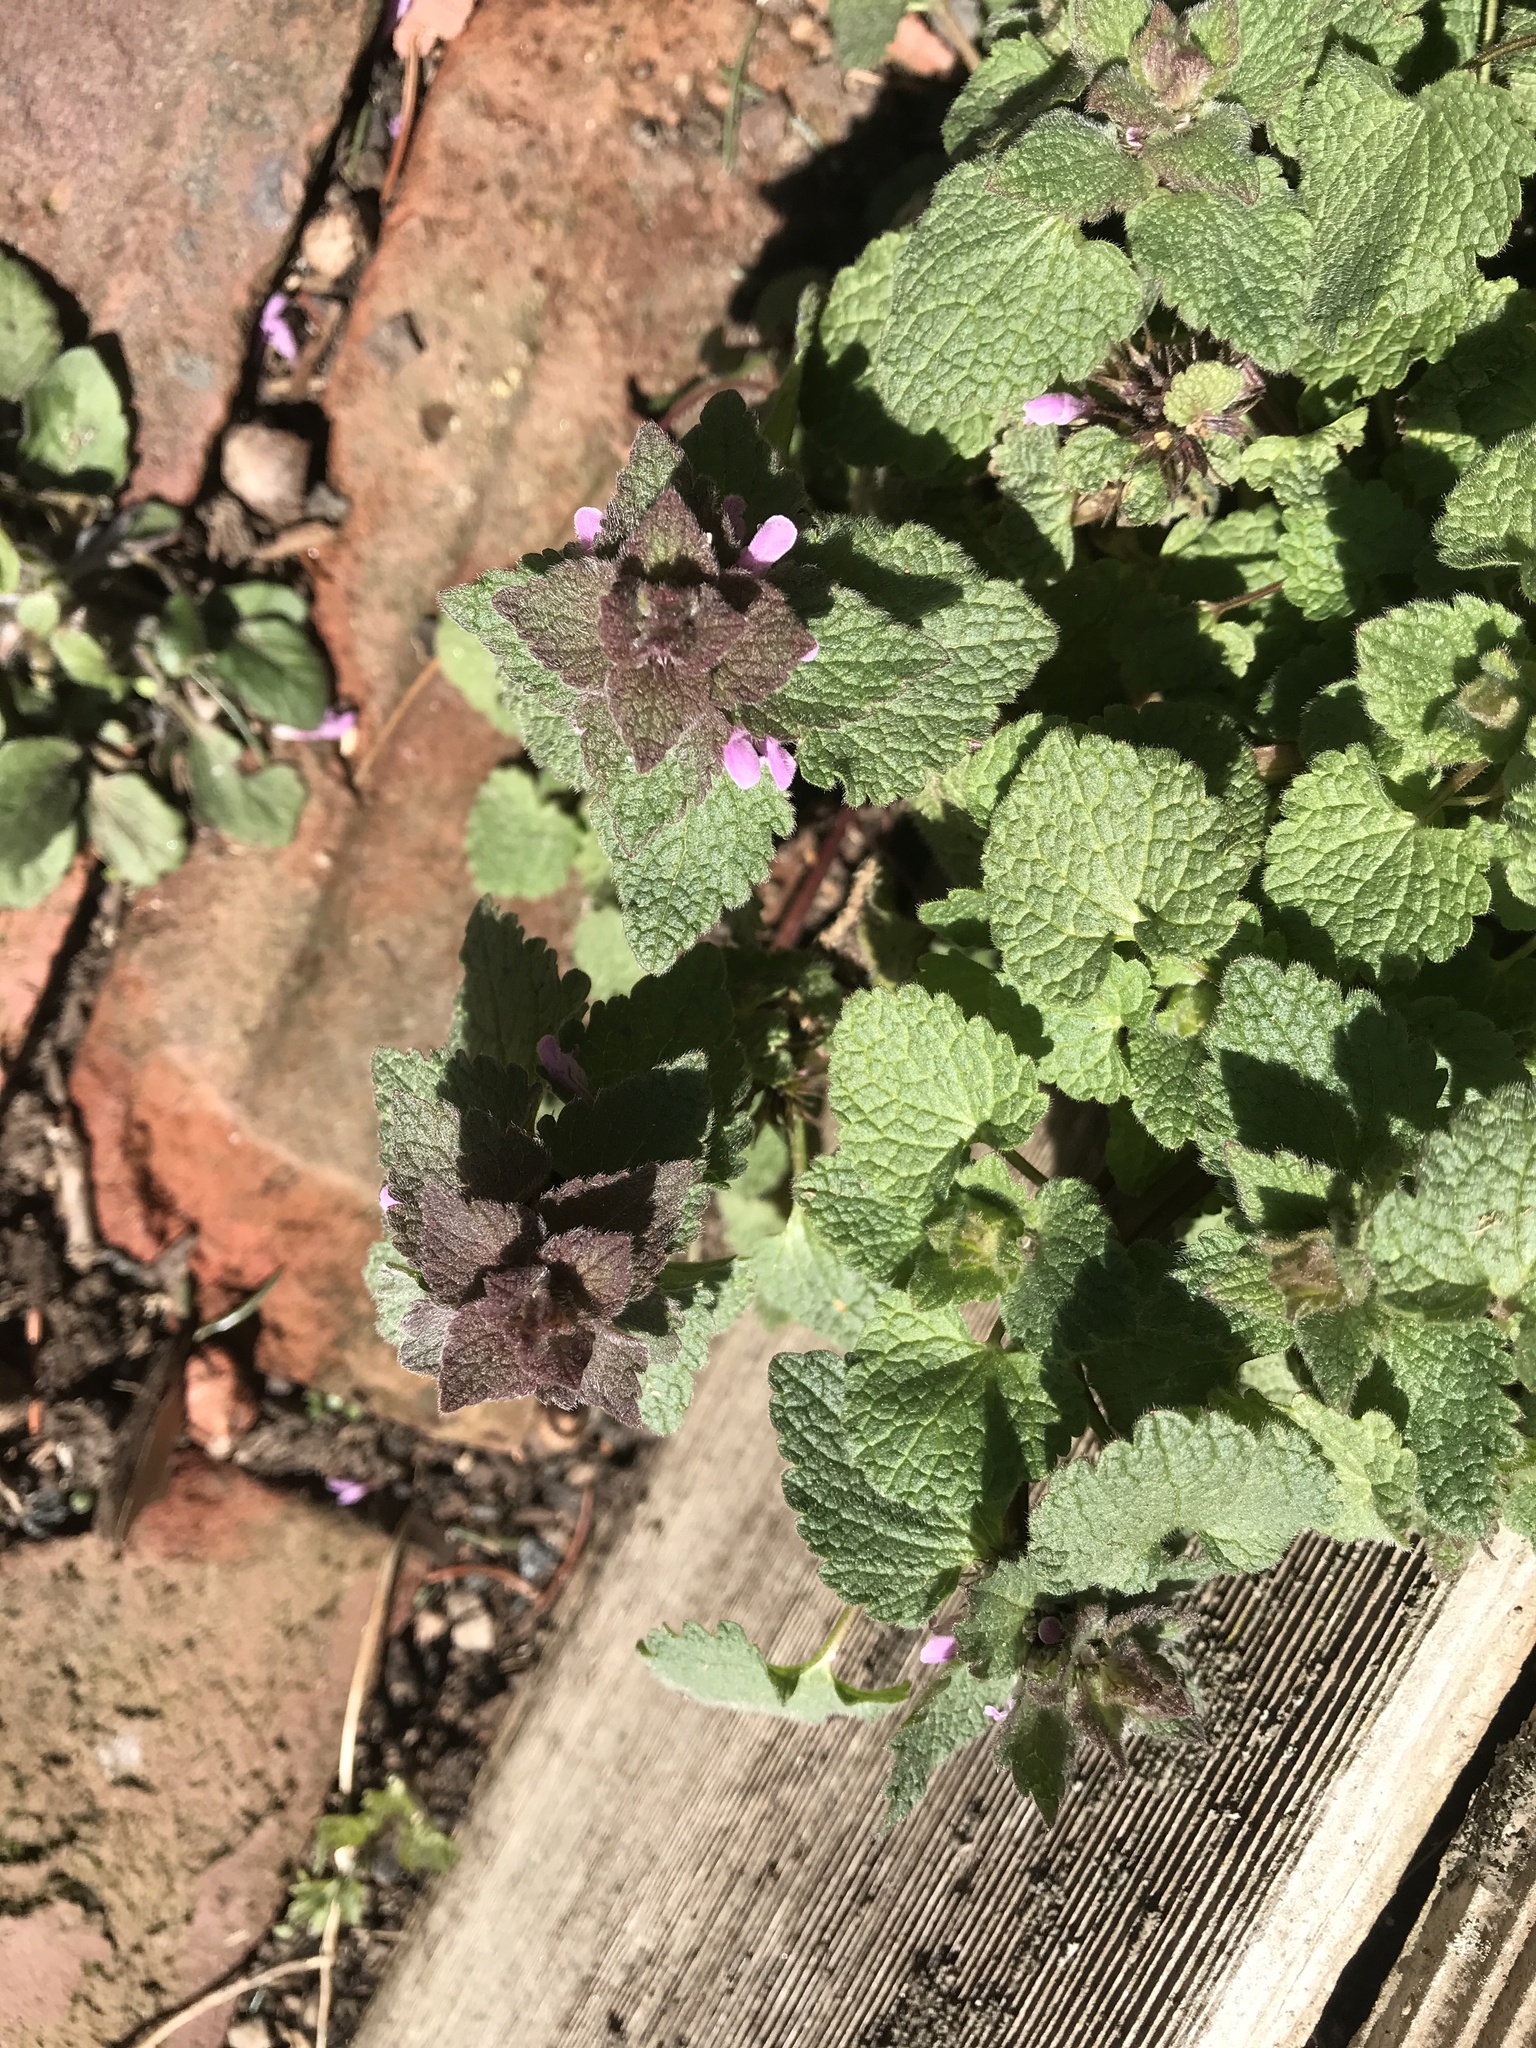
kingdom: Plantae
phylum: Tracheophyta
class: Magnoliopsida
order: Lamiales
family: Lamiaceae
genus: Lamium
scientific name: Lamium purpureum
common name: Red dead-nettle
